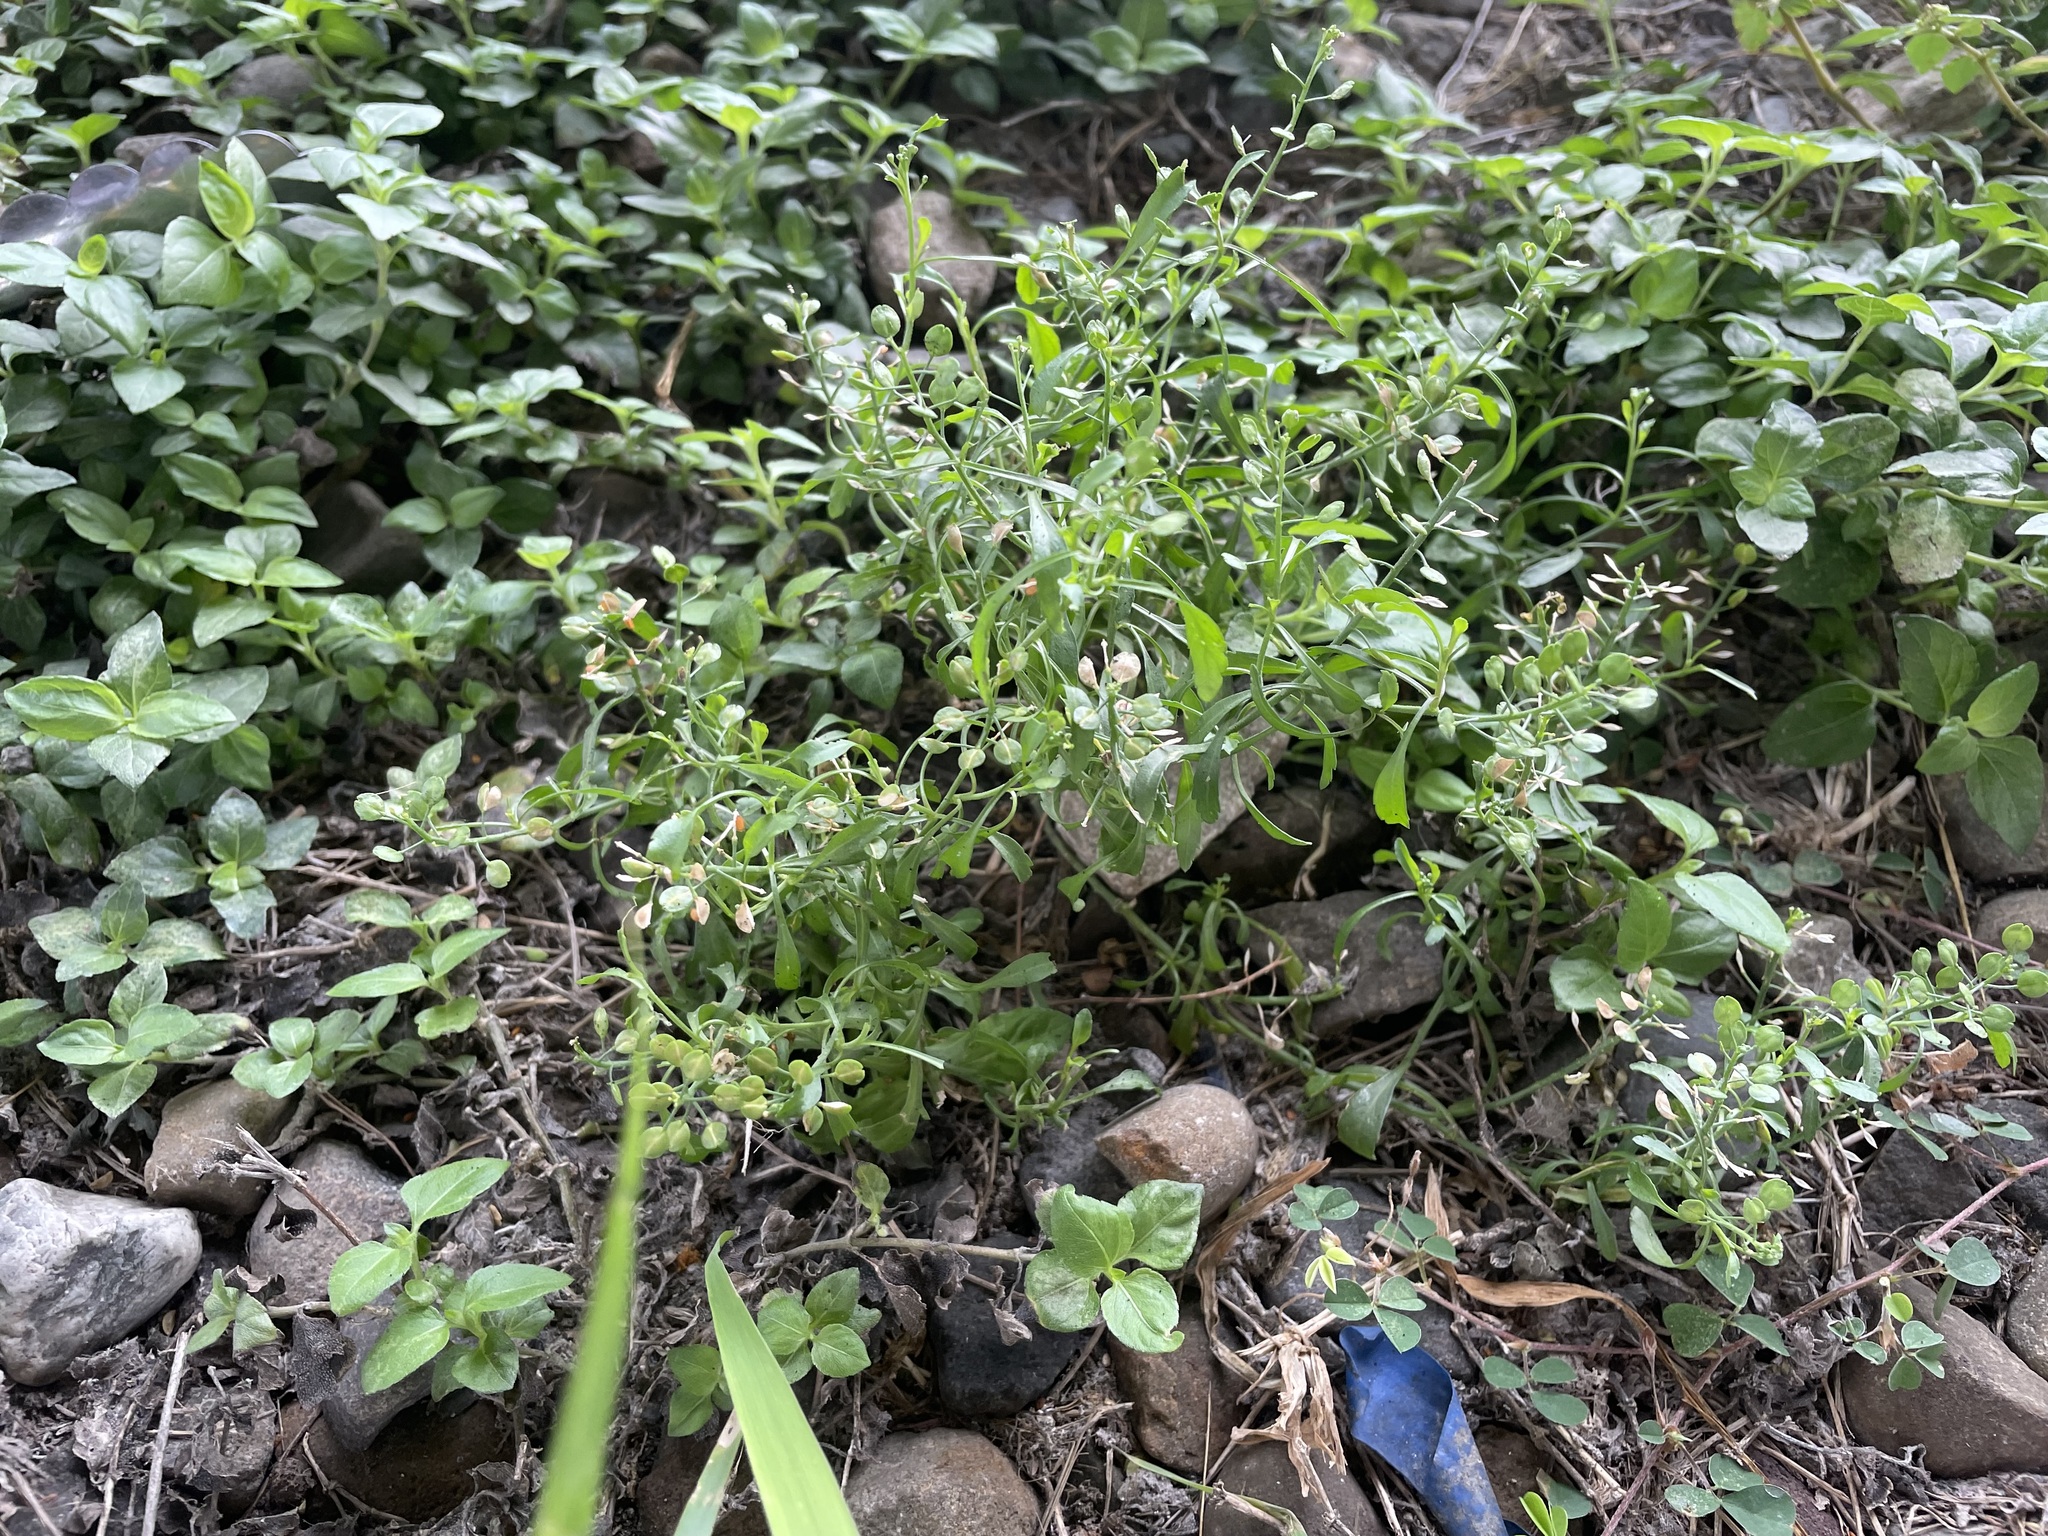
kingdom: Plantae
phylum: Tracheophyta
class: Magnoliopsida
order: Brassicales
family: Brassicaceae
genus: Lepidium
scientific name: Lepidium virginicum
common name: Least pepperwort
